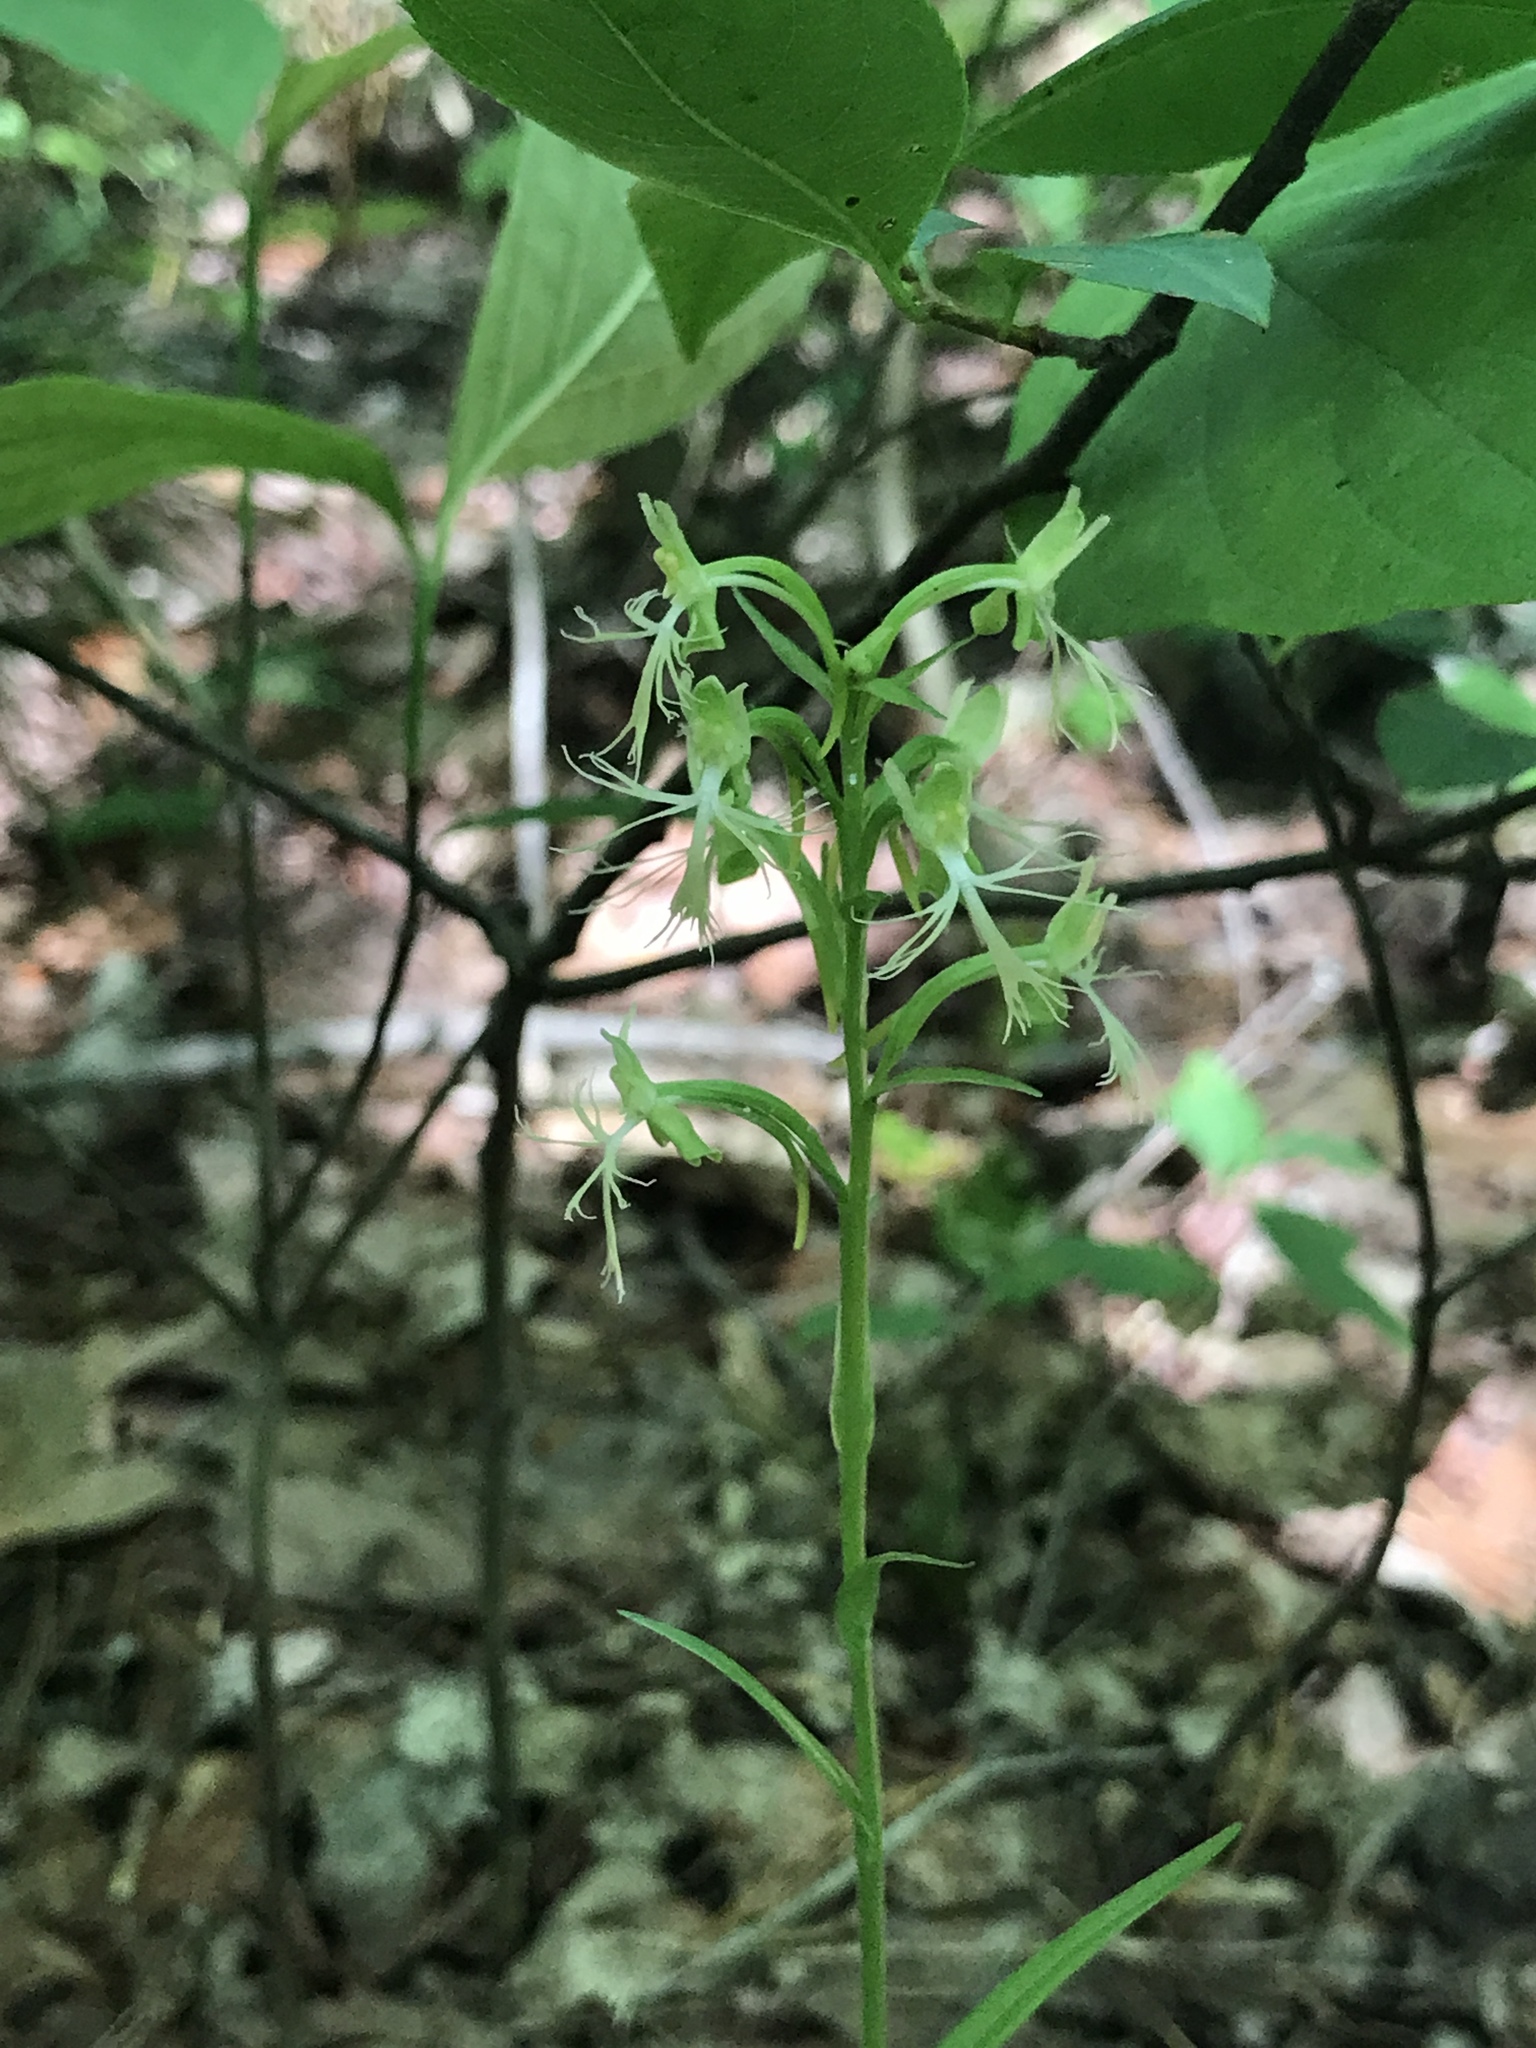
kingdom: Plantae
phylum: Tracheophyta
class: Liliopsida
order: Asparagales
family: Orchidaceae
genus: Platanthera
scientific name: Platanthera lacera
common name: Green fringed orchid
